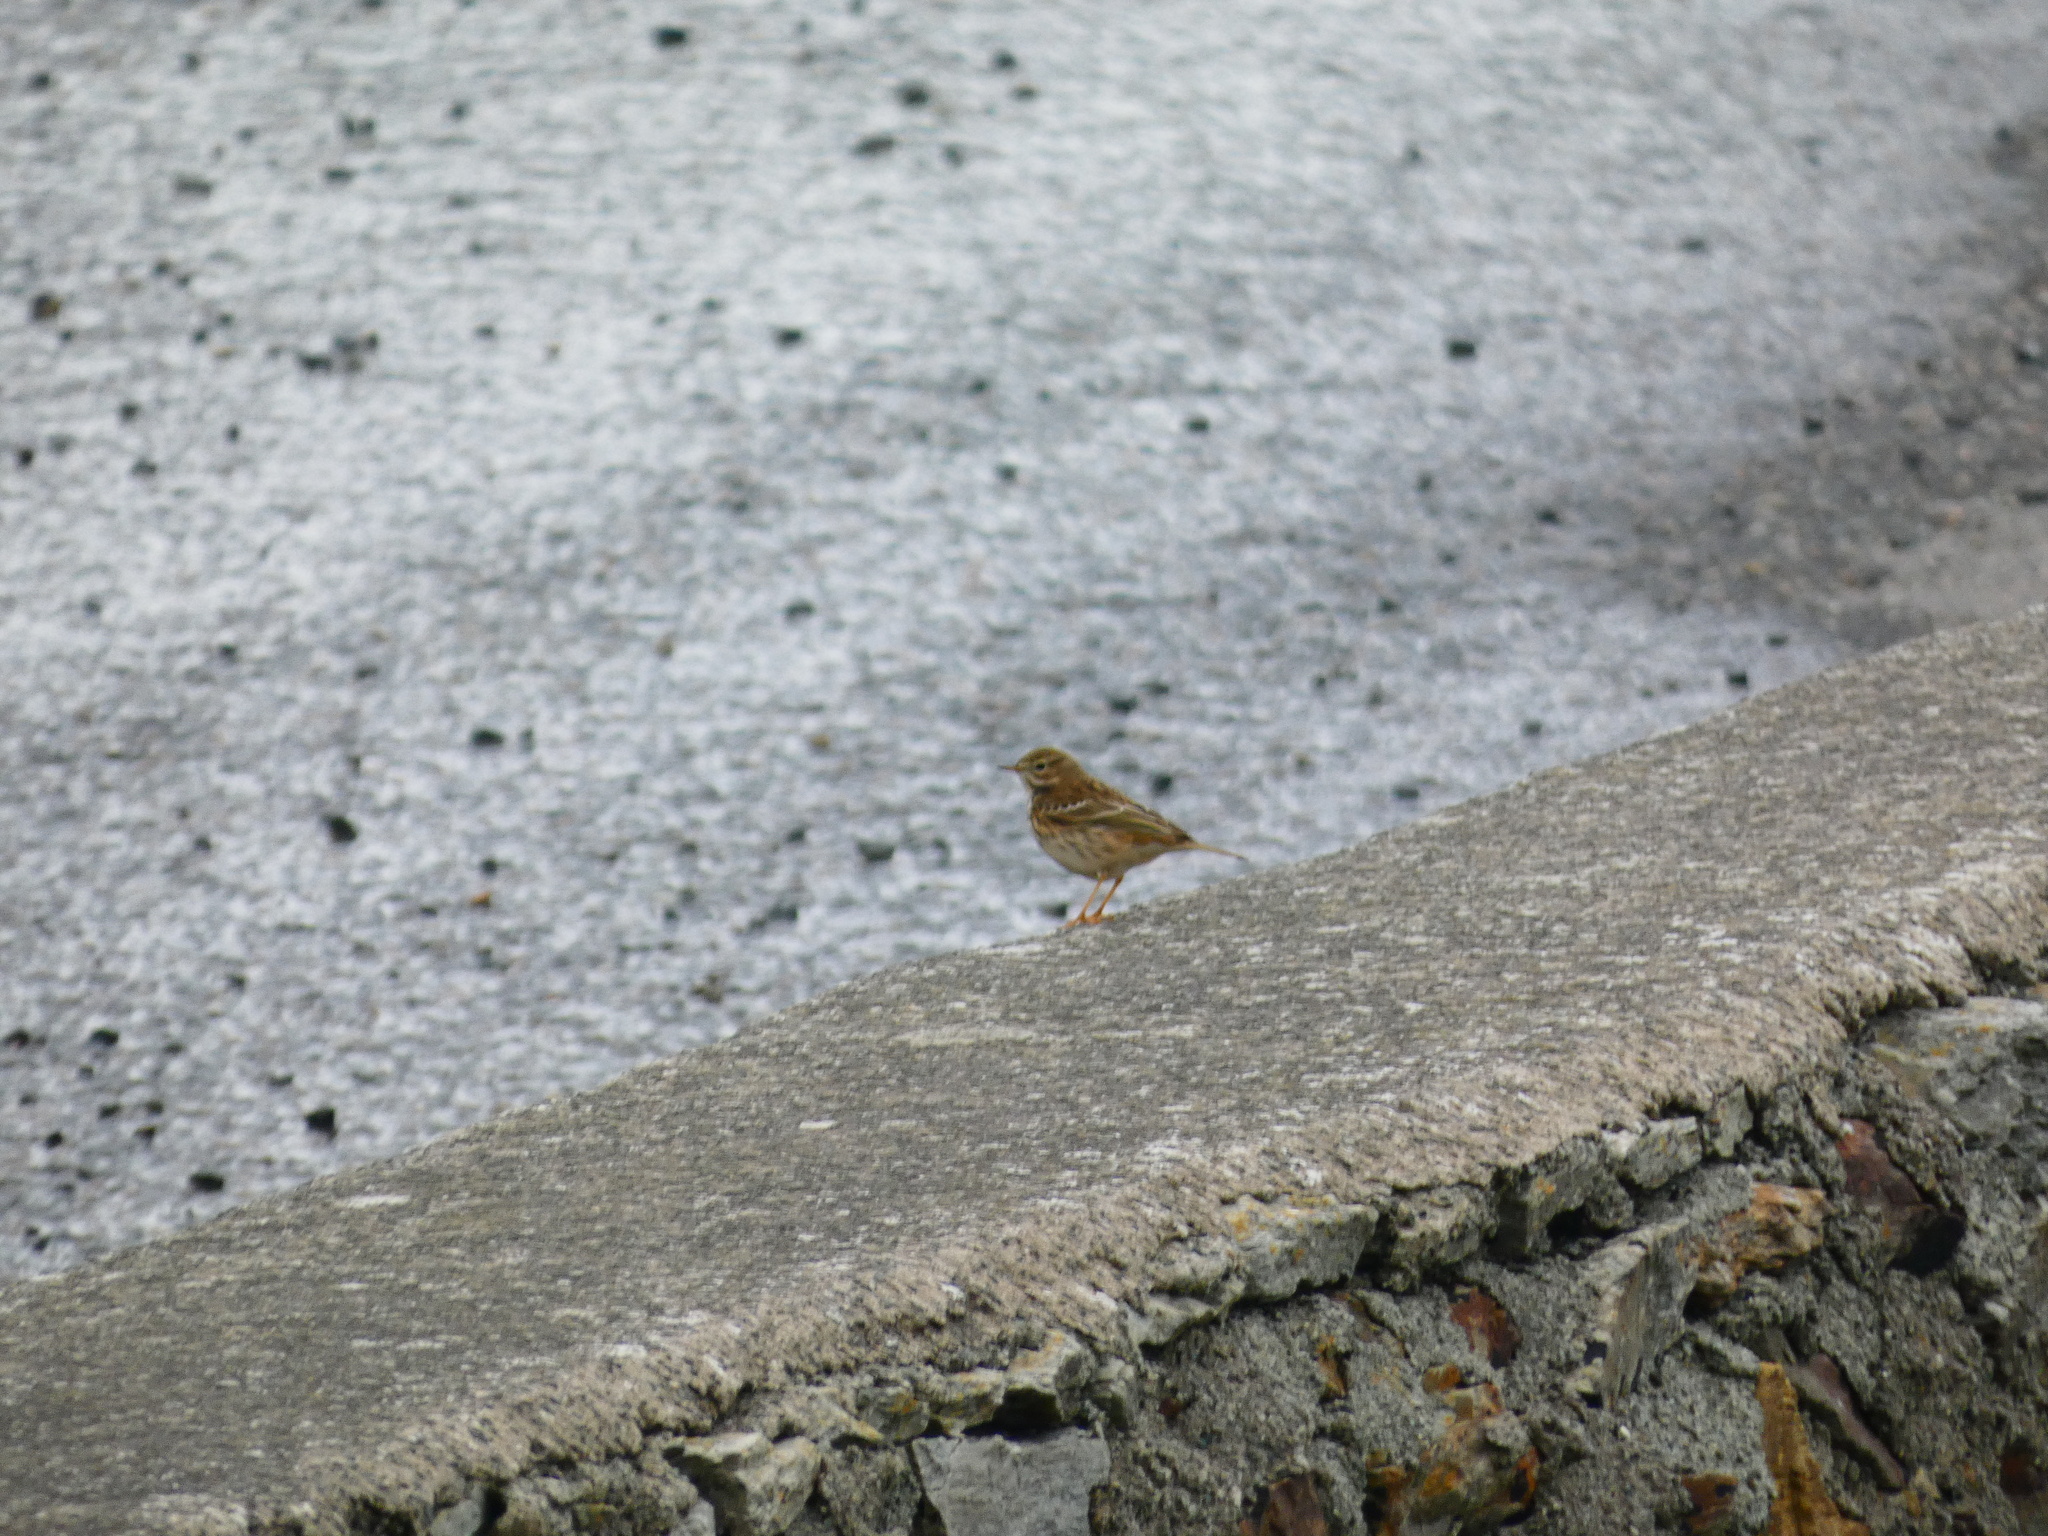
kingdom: Animalia
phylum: Chordata
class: Aves
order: Passeriformes
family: Motacillidae
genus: Anthus
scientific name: Anthus pratensis
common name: Meadow pipit
